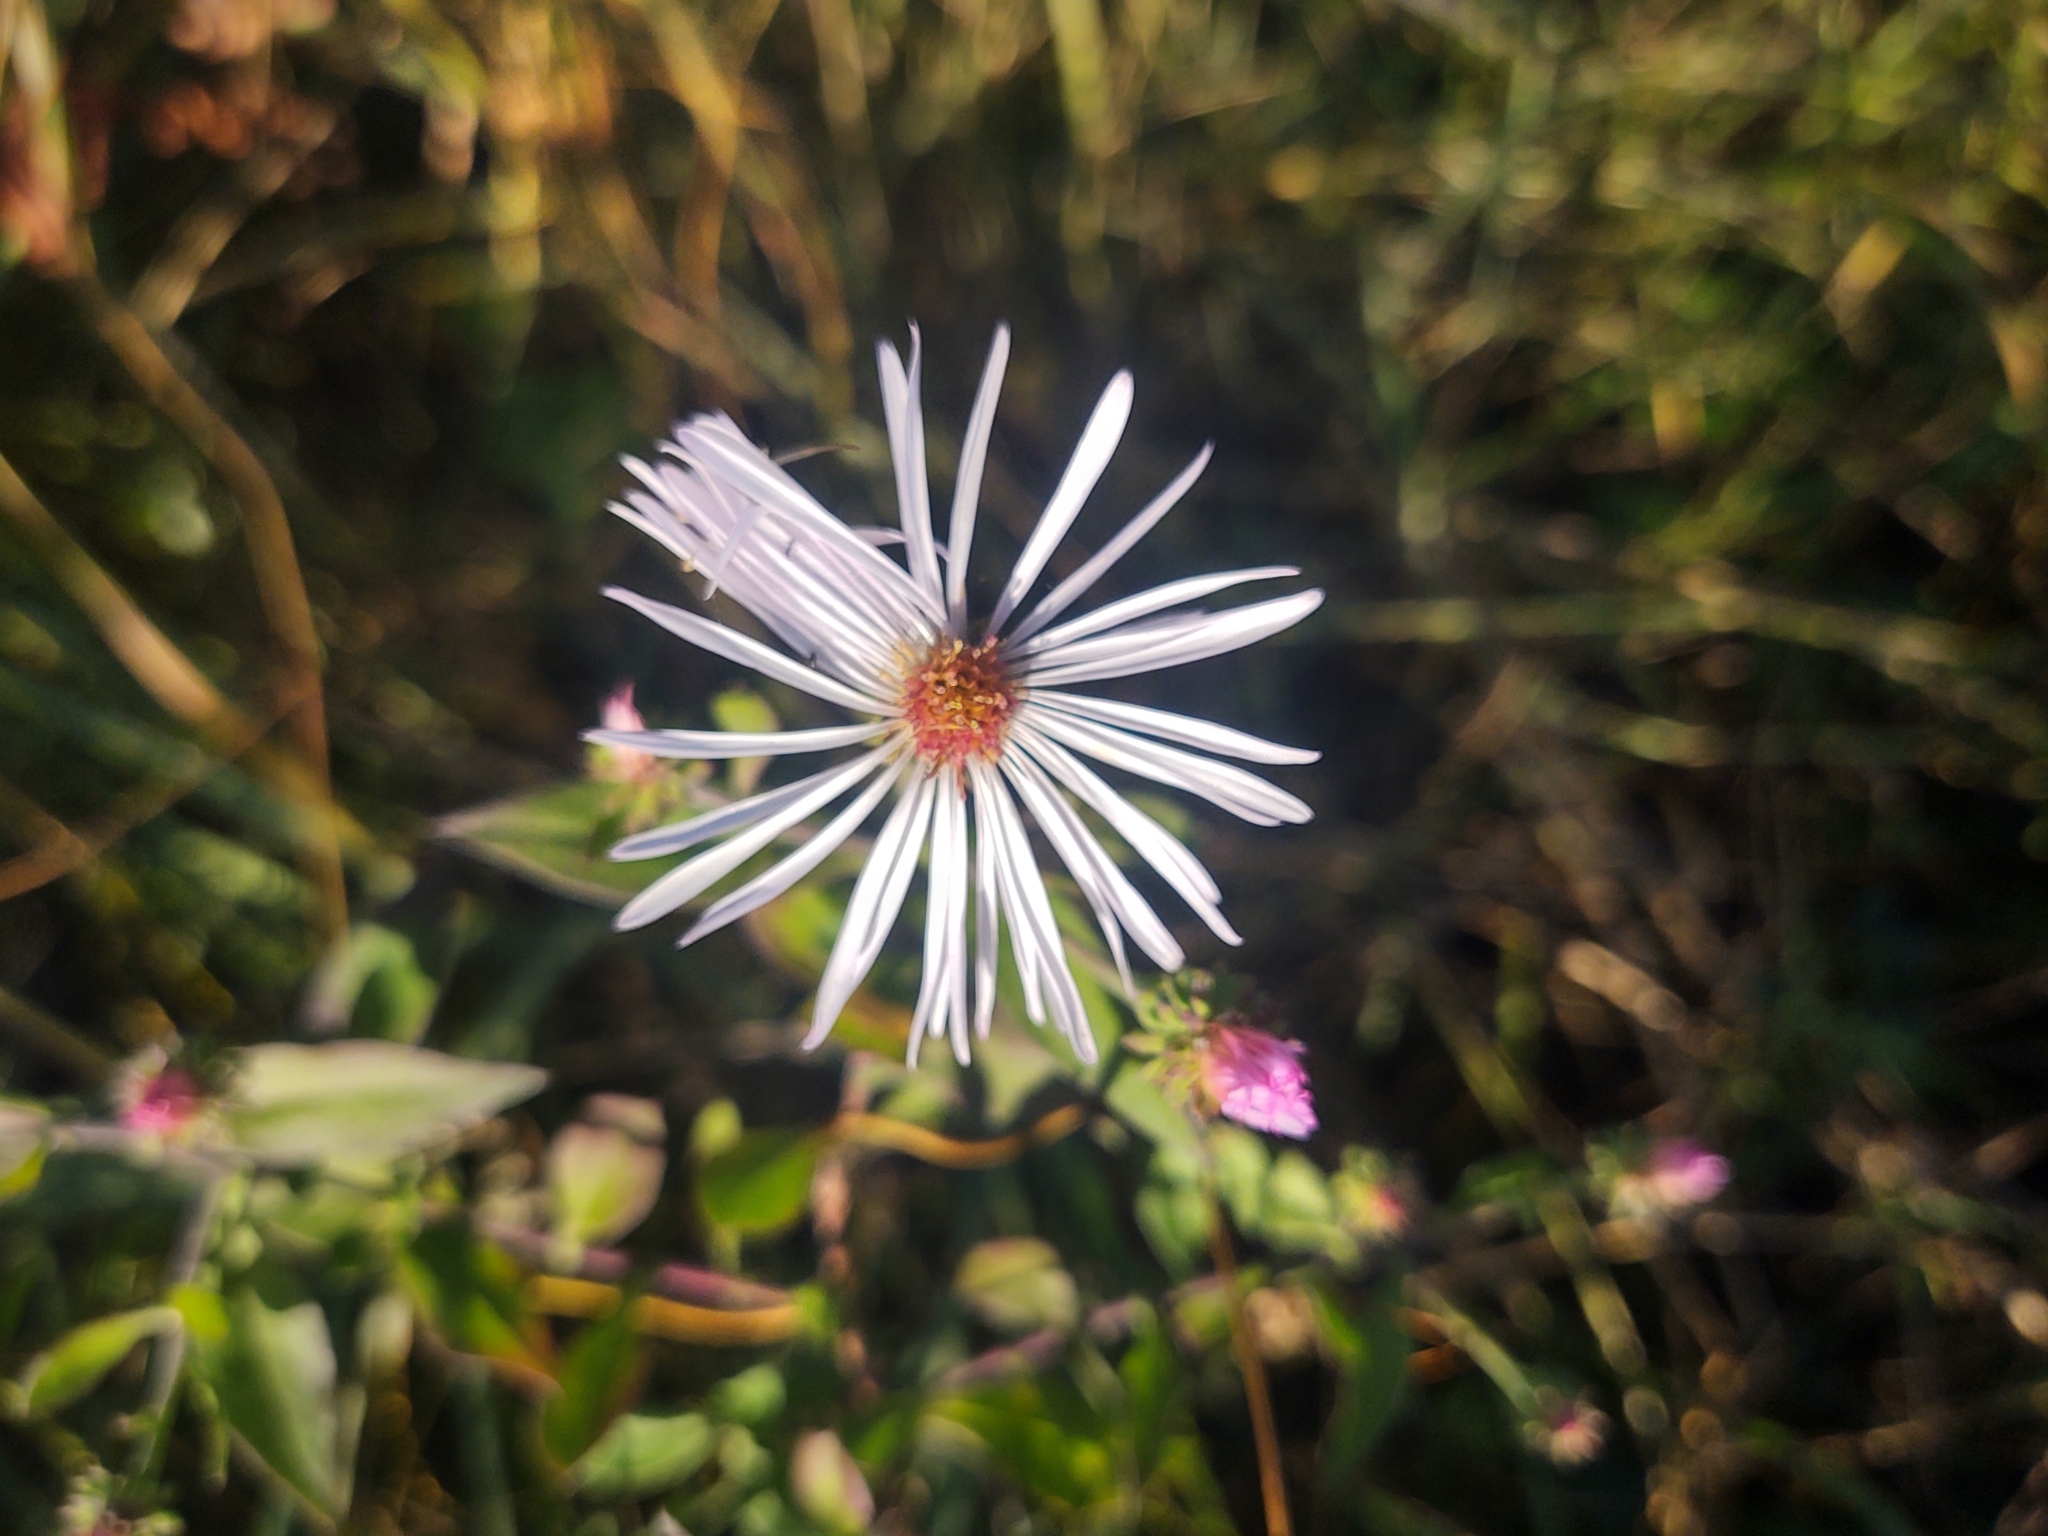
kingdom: Plantae
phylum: Tracheophyta
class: Magnoliopsida
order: Asterales
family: Asteraceae
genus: Ampelaster
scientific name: Ampelaster carolinianus
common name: Climbing aster
